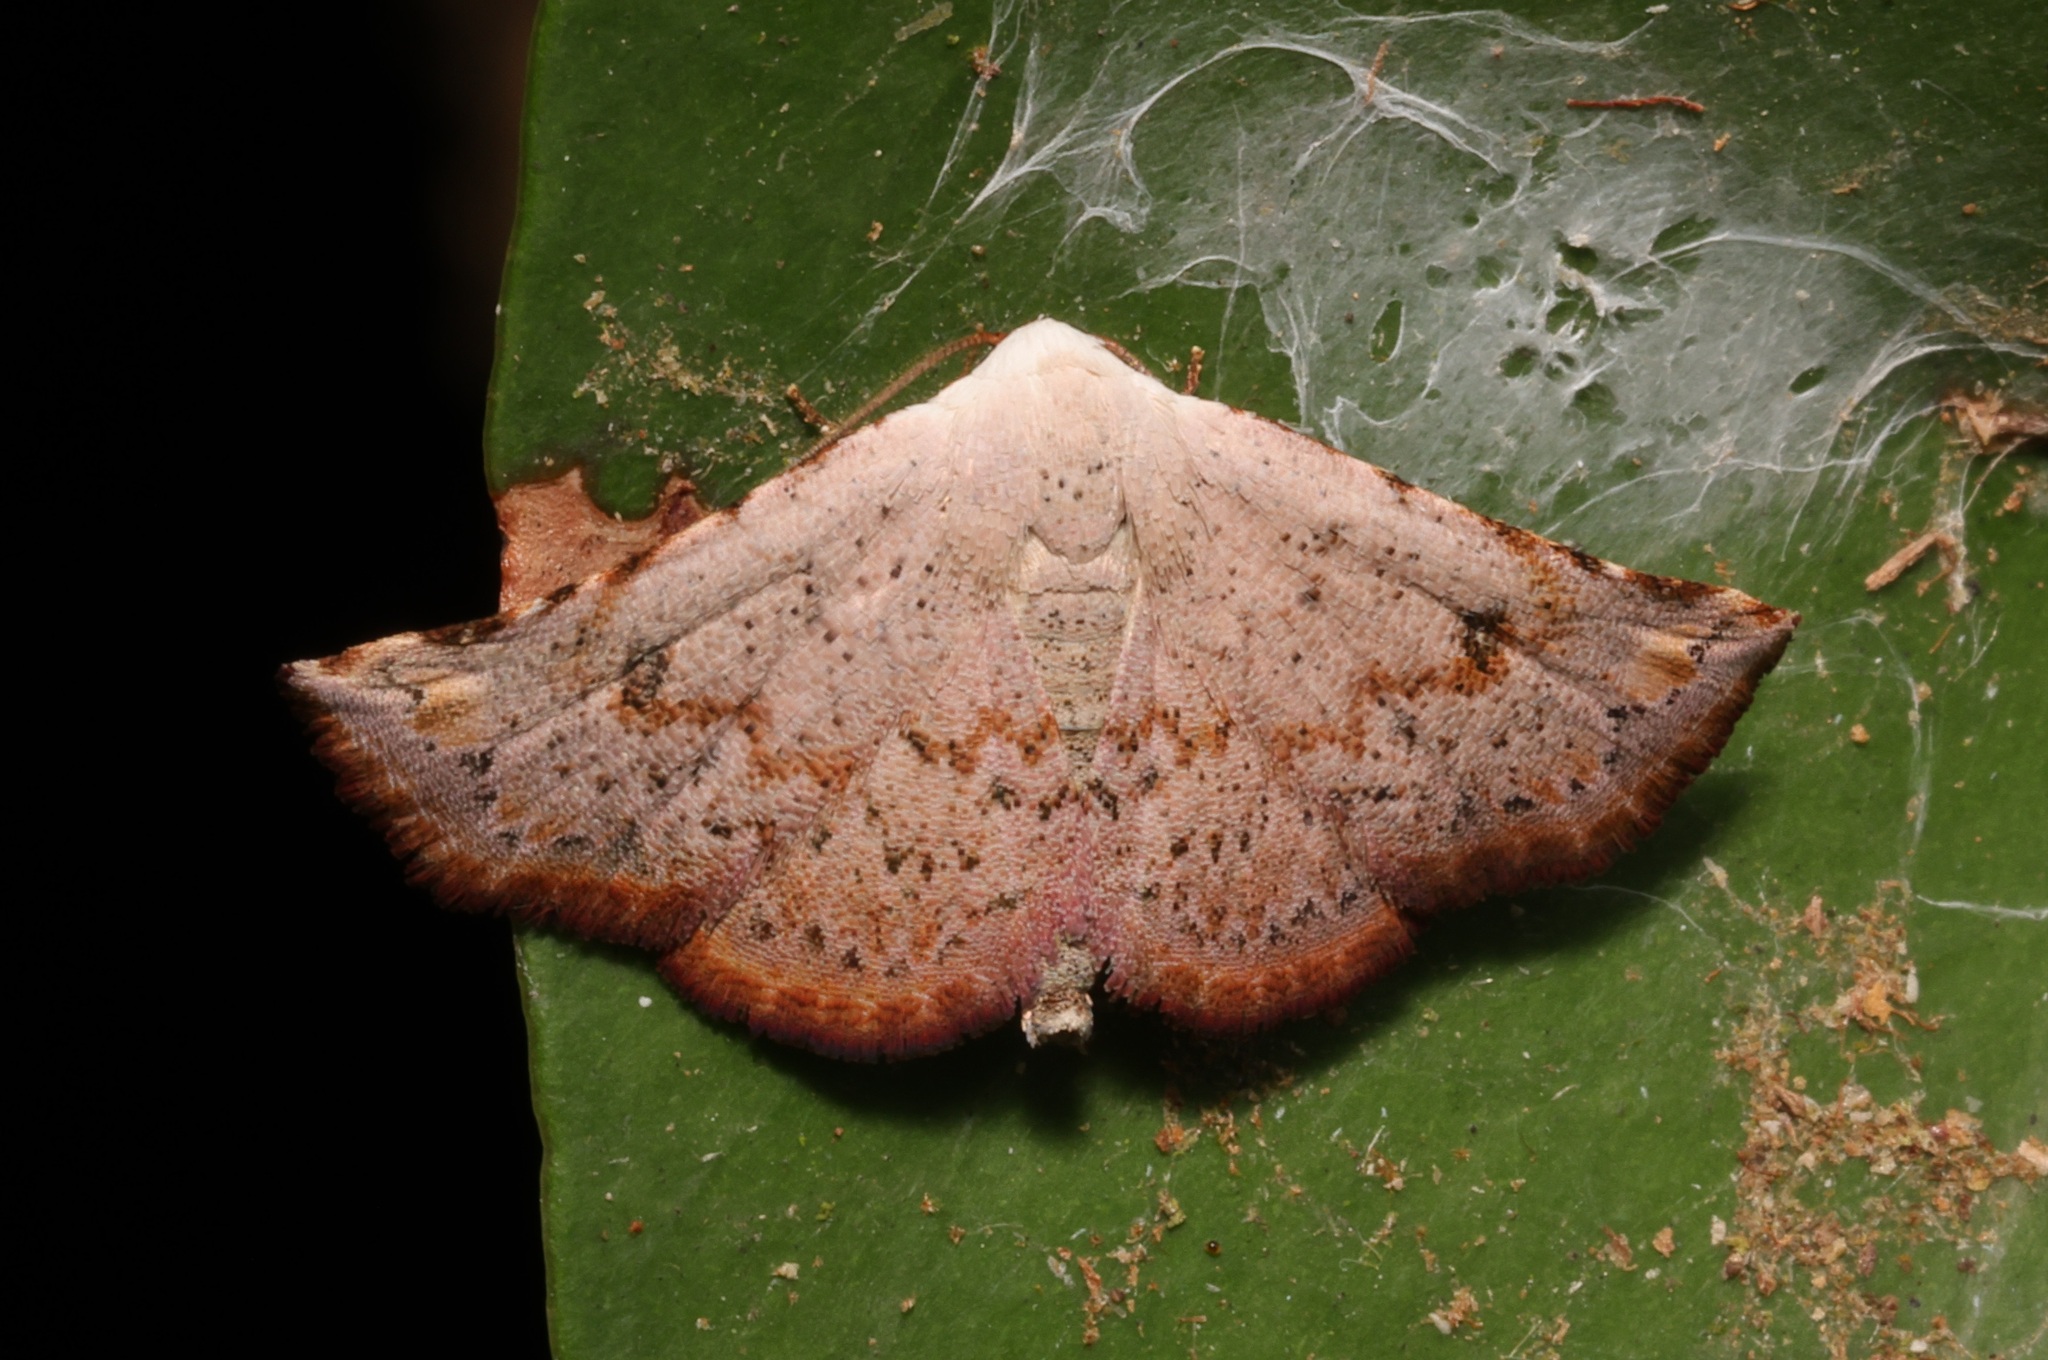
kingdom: Animalia
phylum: Arthropoda
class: Insecta
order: Lepidoptera
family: Noctuidae
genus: Eublemma
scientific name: Eublemma rufiplaga
